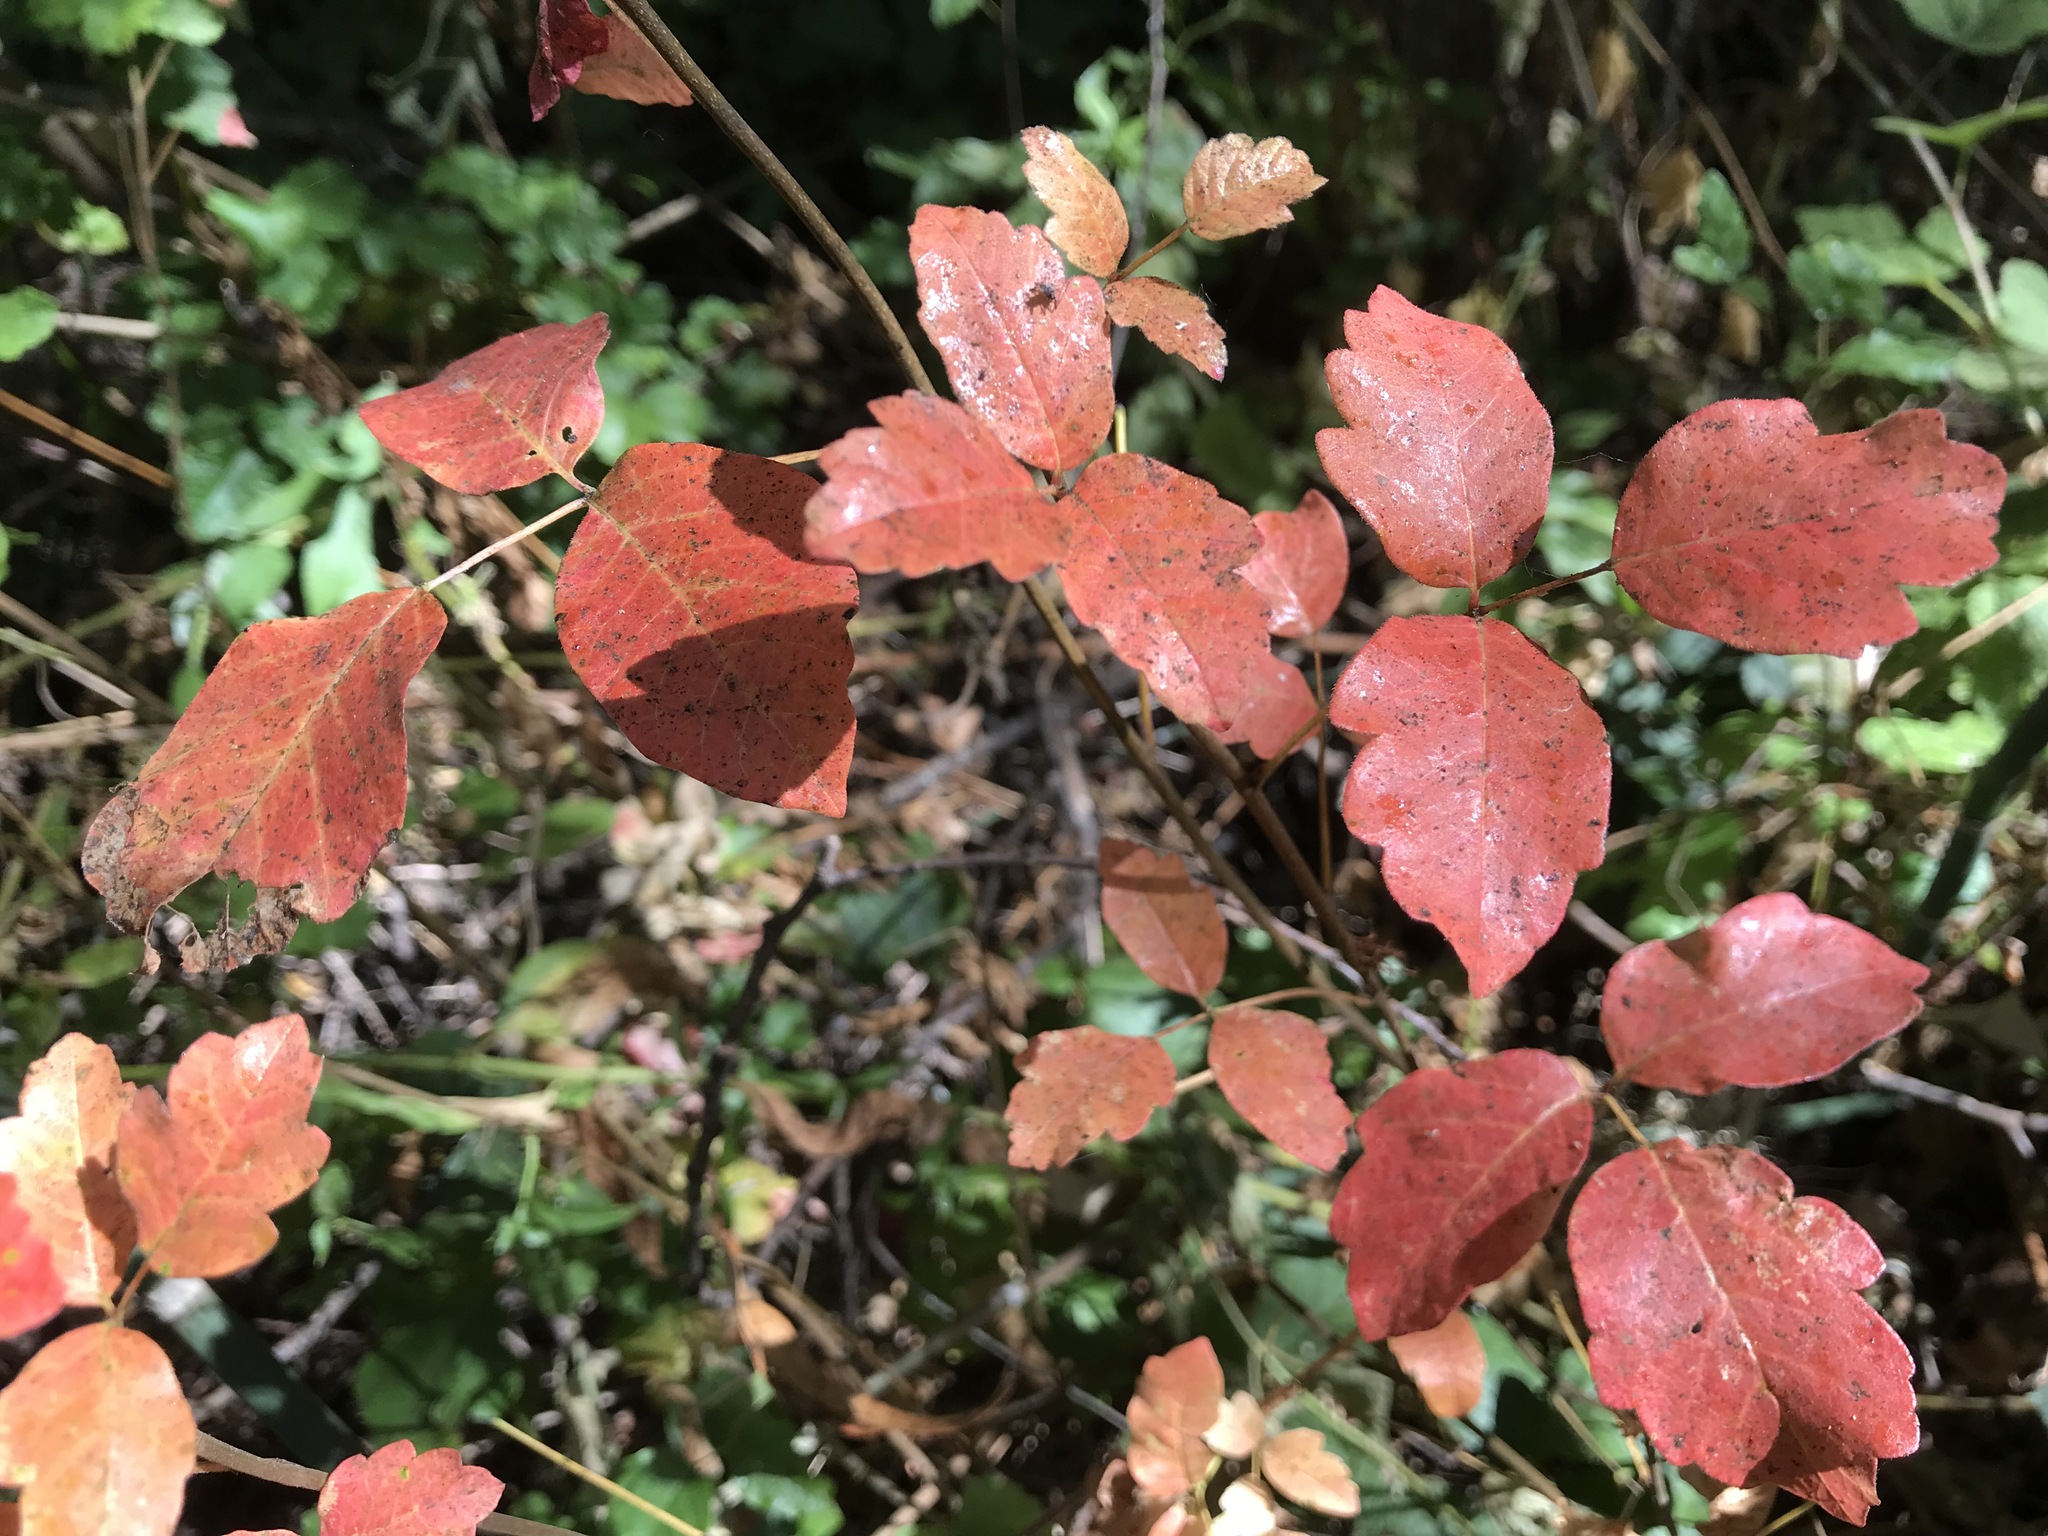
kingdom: Plantae
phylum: Tracheophyta
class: Magnoliopsida
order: Sapindales
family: Anacardiaceae
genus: Toxicodendron
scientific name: Toxicodendron diversilobum
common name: Pacific poison-oak
